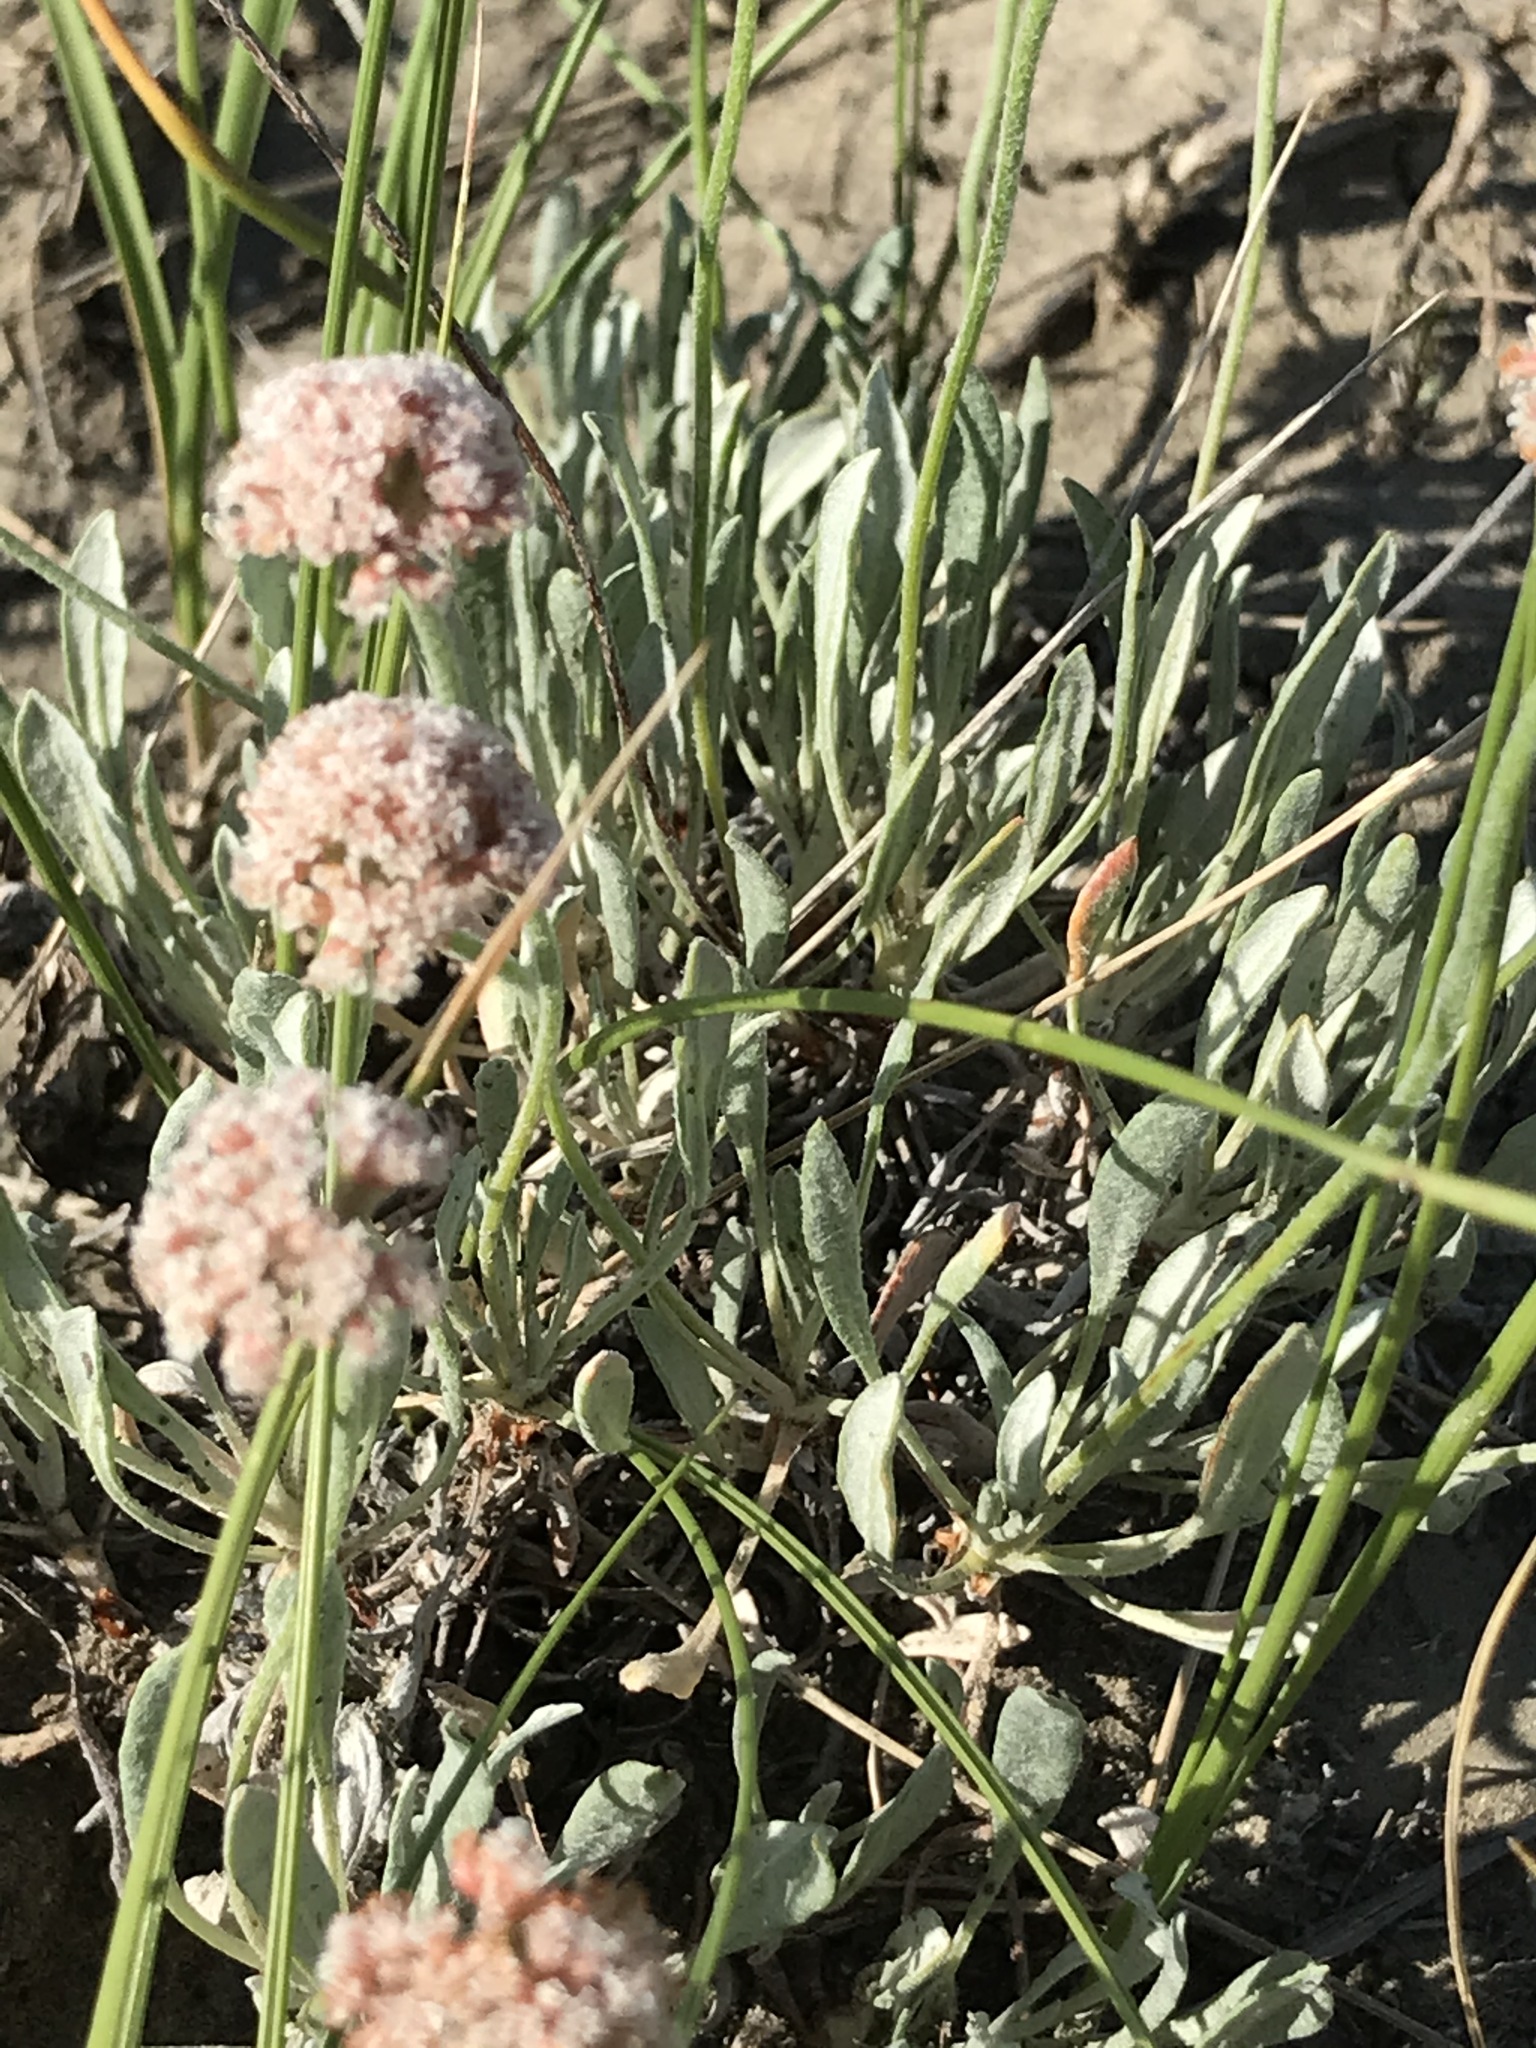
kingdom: Plantae
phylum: Tracheophyta
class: Magnoliopsida
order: Caryophyllales
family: Polygonaceae
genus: Eriogonum
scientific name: Eriogonum pauciflorum
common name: Few-flower wild buckwheat
